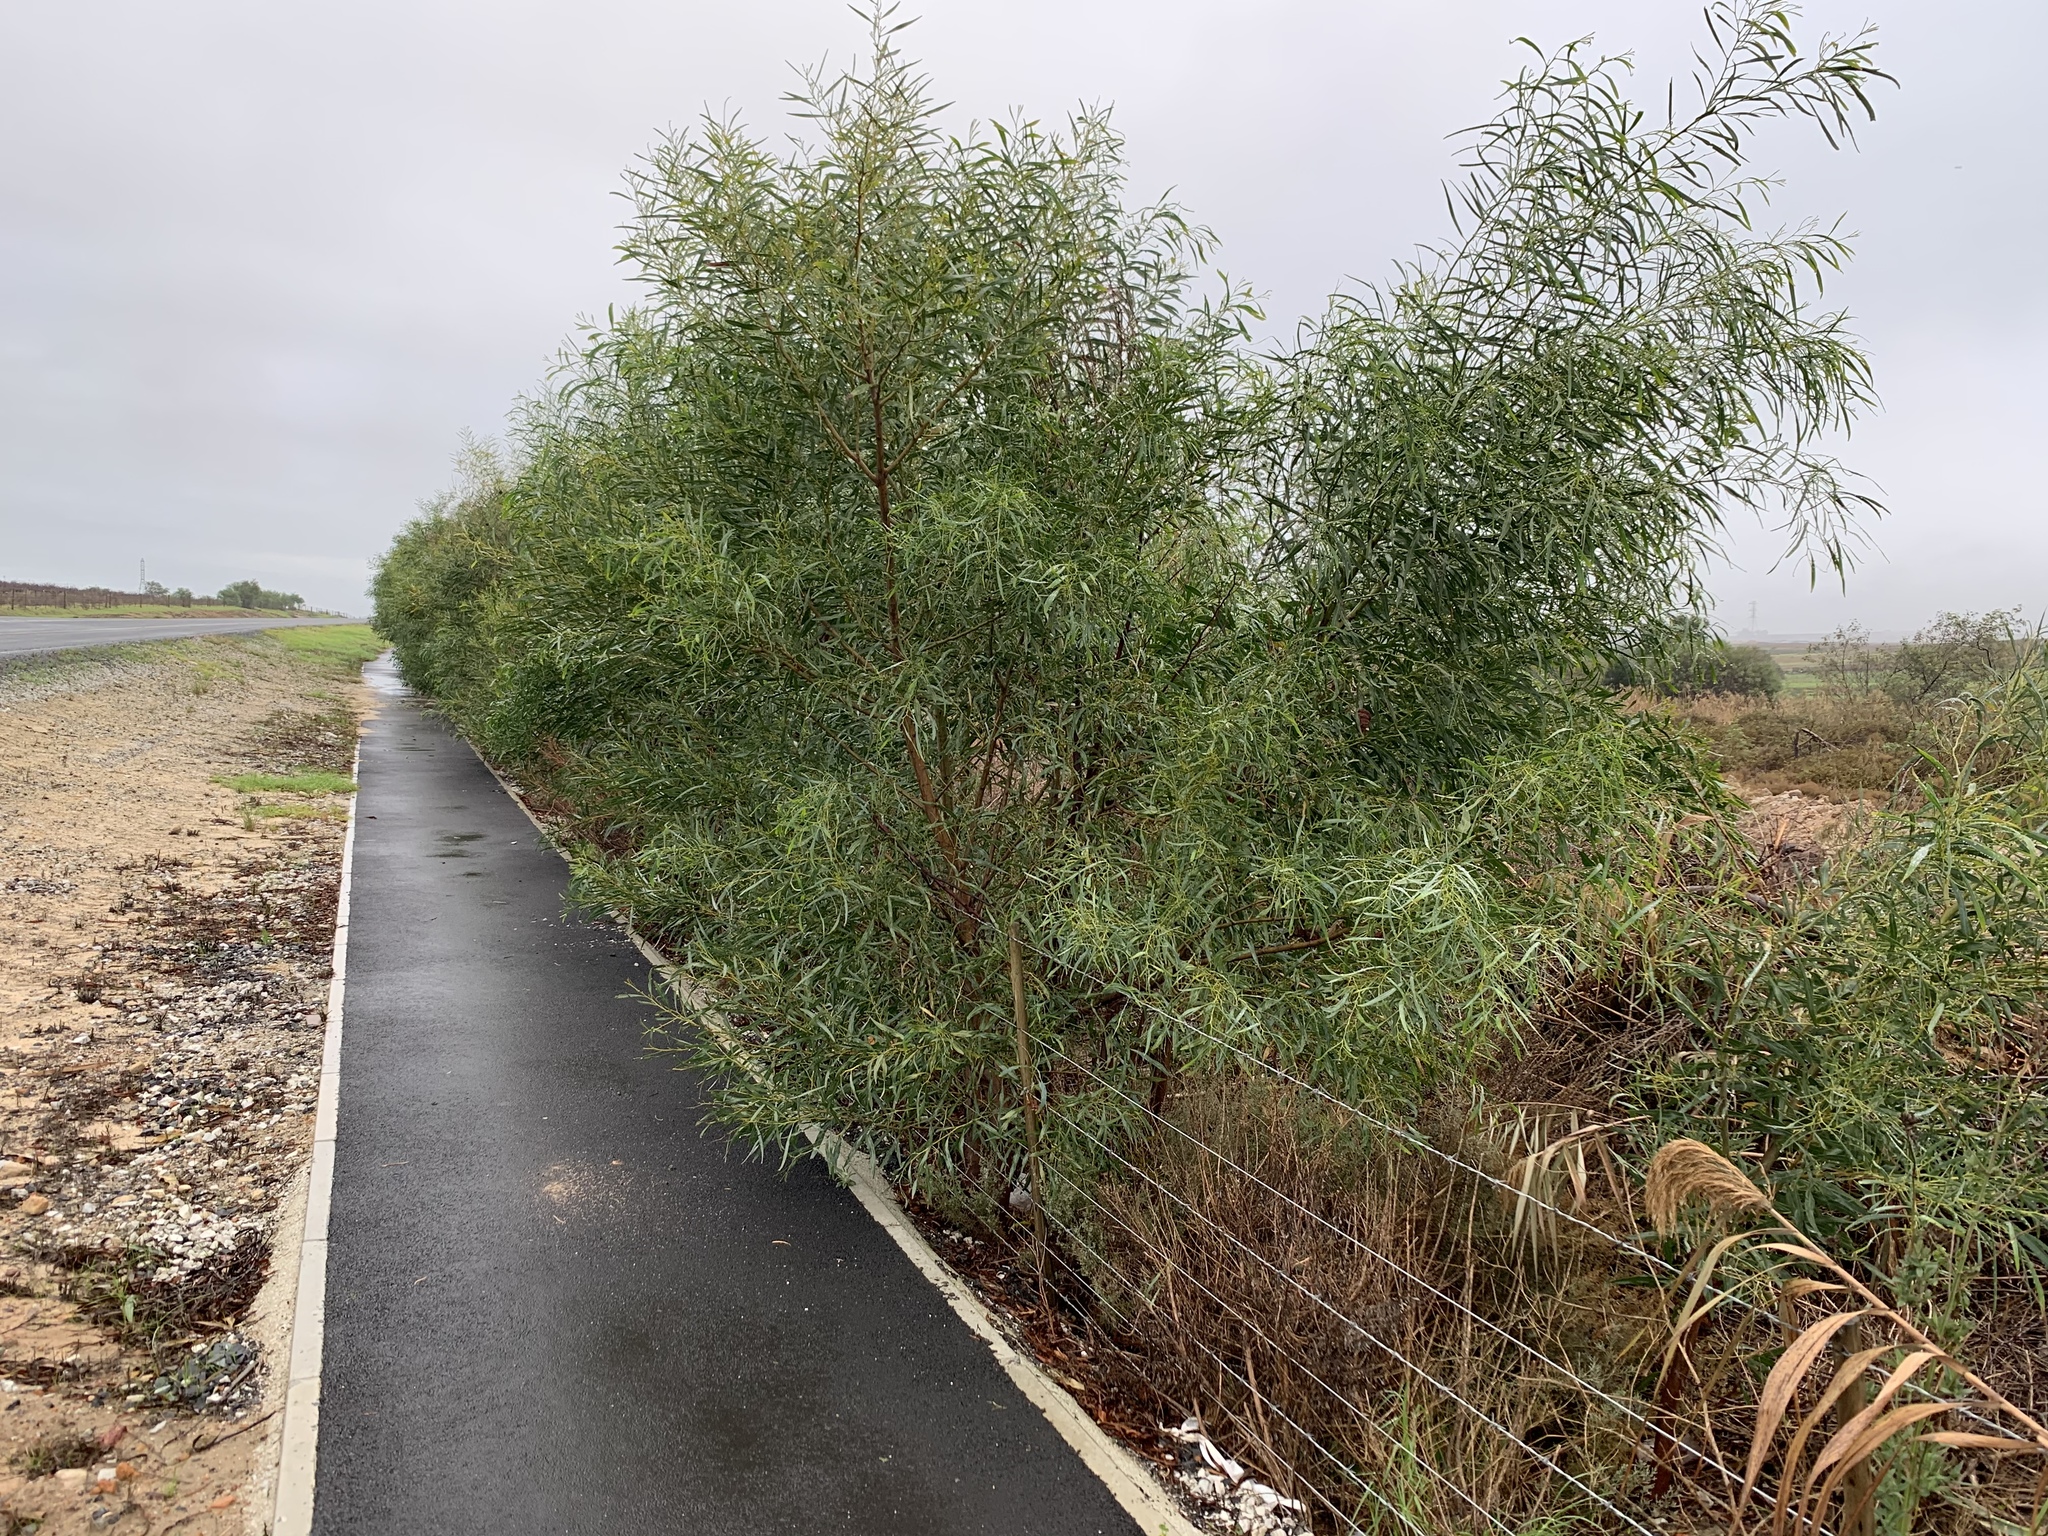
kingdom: Plantae
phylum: Tracheophyta
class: Magnoliopsida
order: Fabales
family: Fabaceae
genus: Acacia
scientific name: Acacia saligna
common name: Orange wattle
